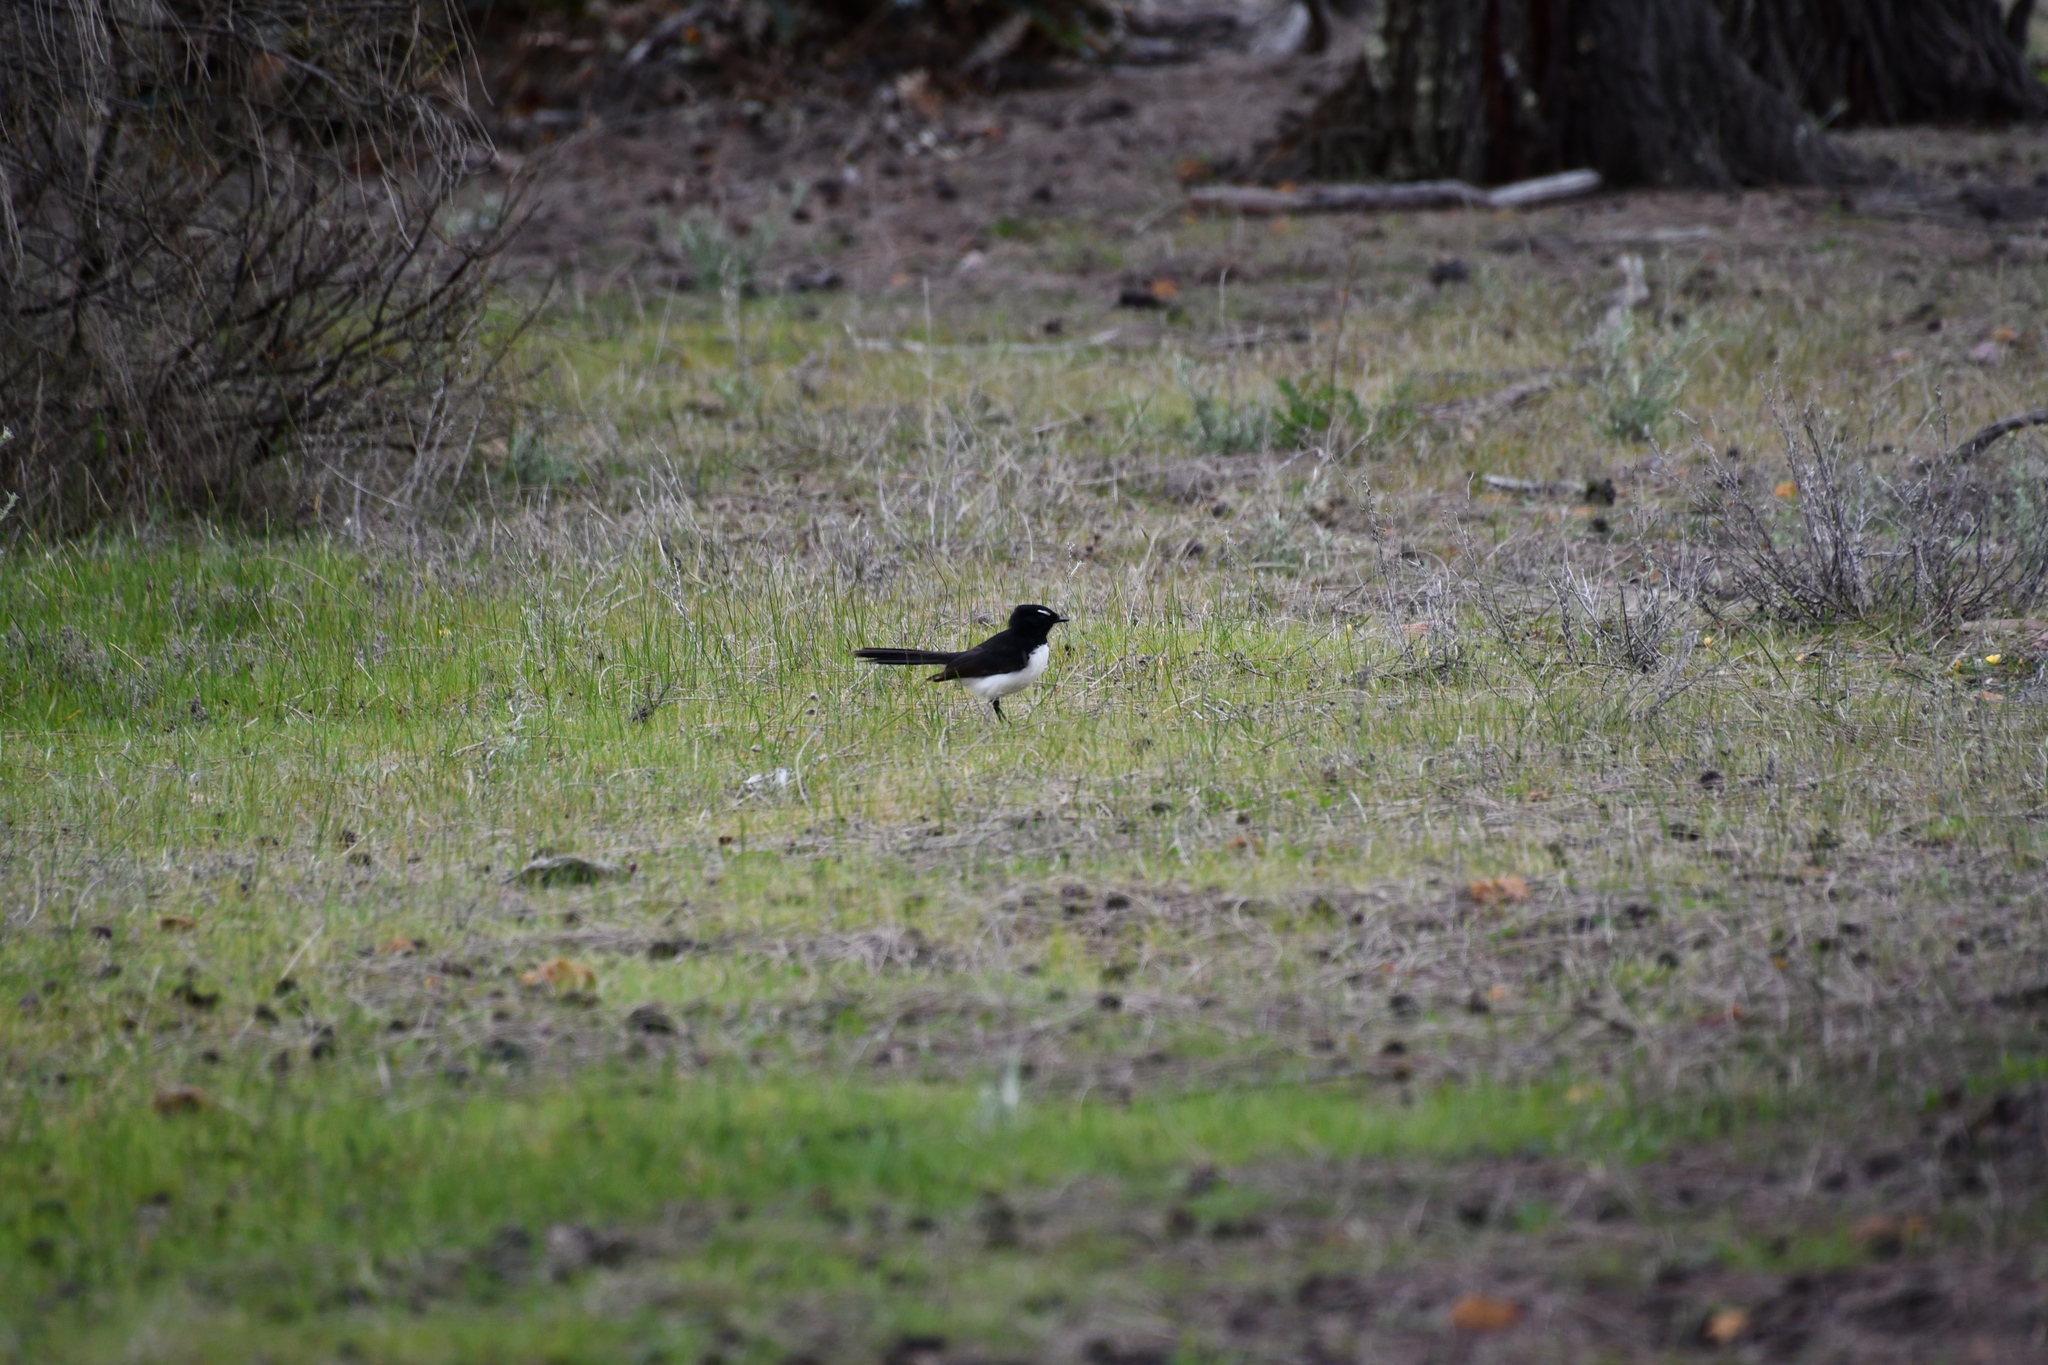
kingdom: Animalia
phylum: Chordata
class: Aves
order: Passeriformes
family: Rhipiduridae
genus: Rhipidura
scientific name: Rhipidura leucophrys
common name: Willie wagtail
